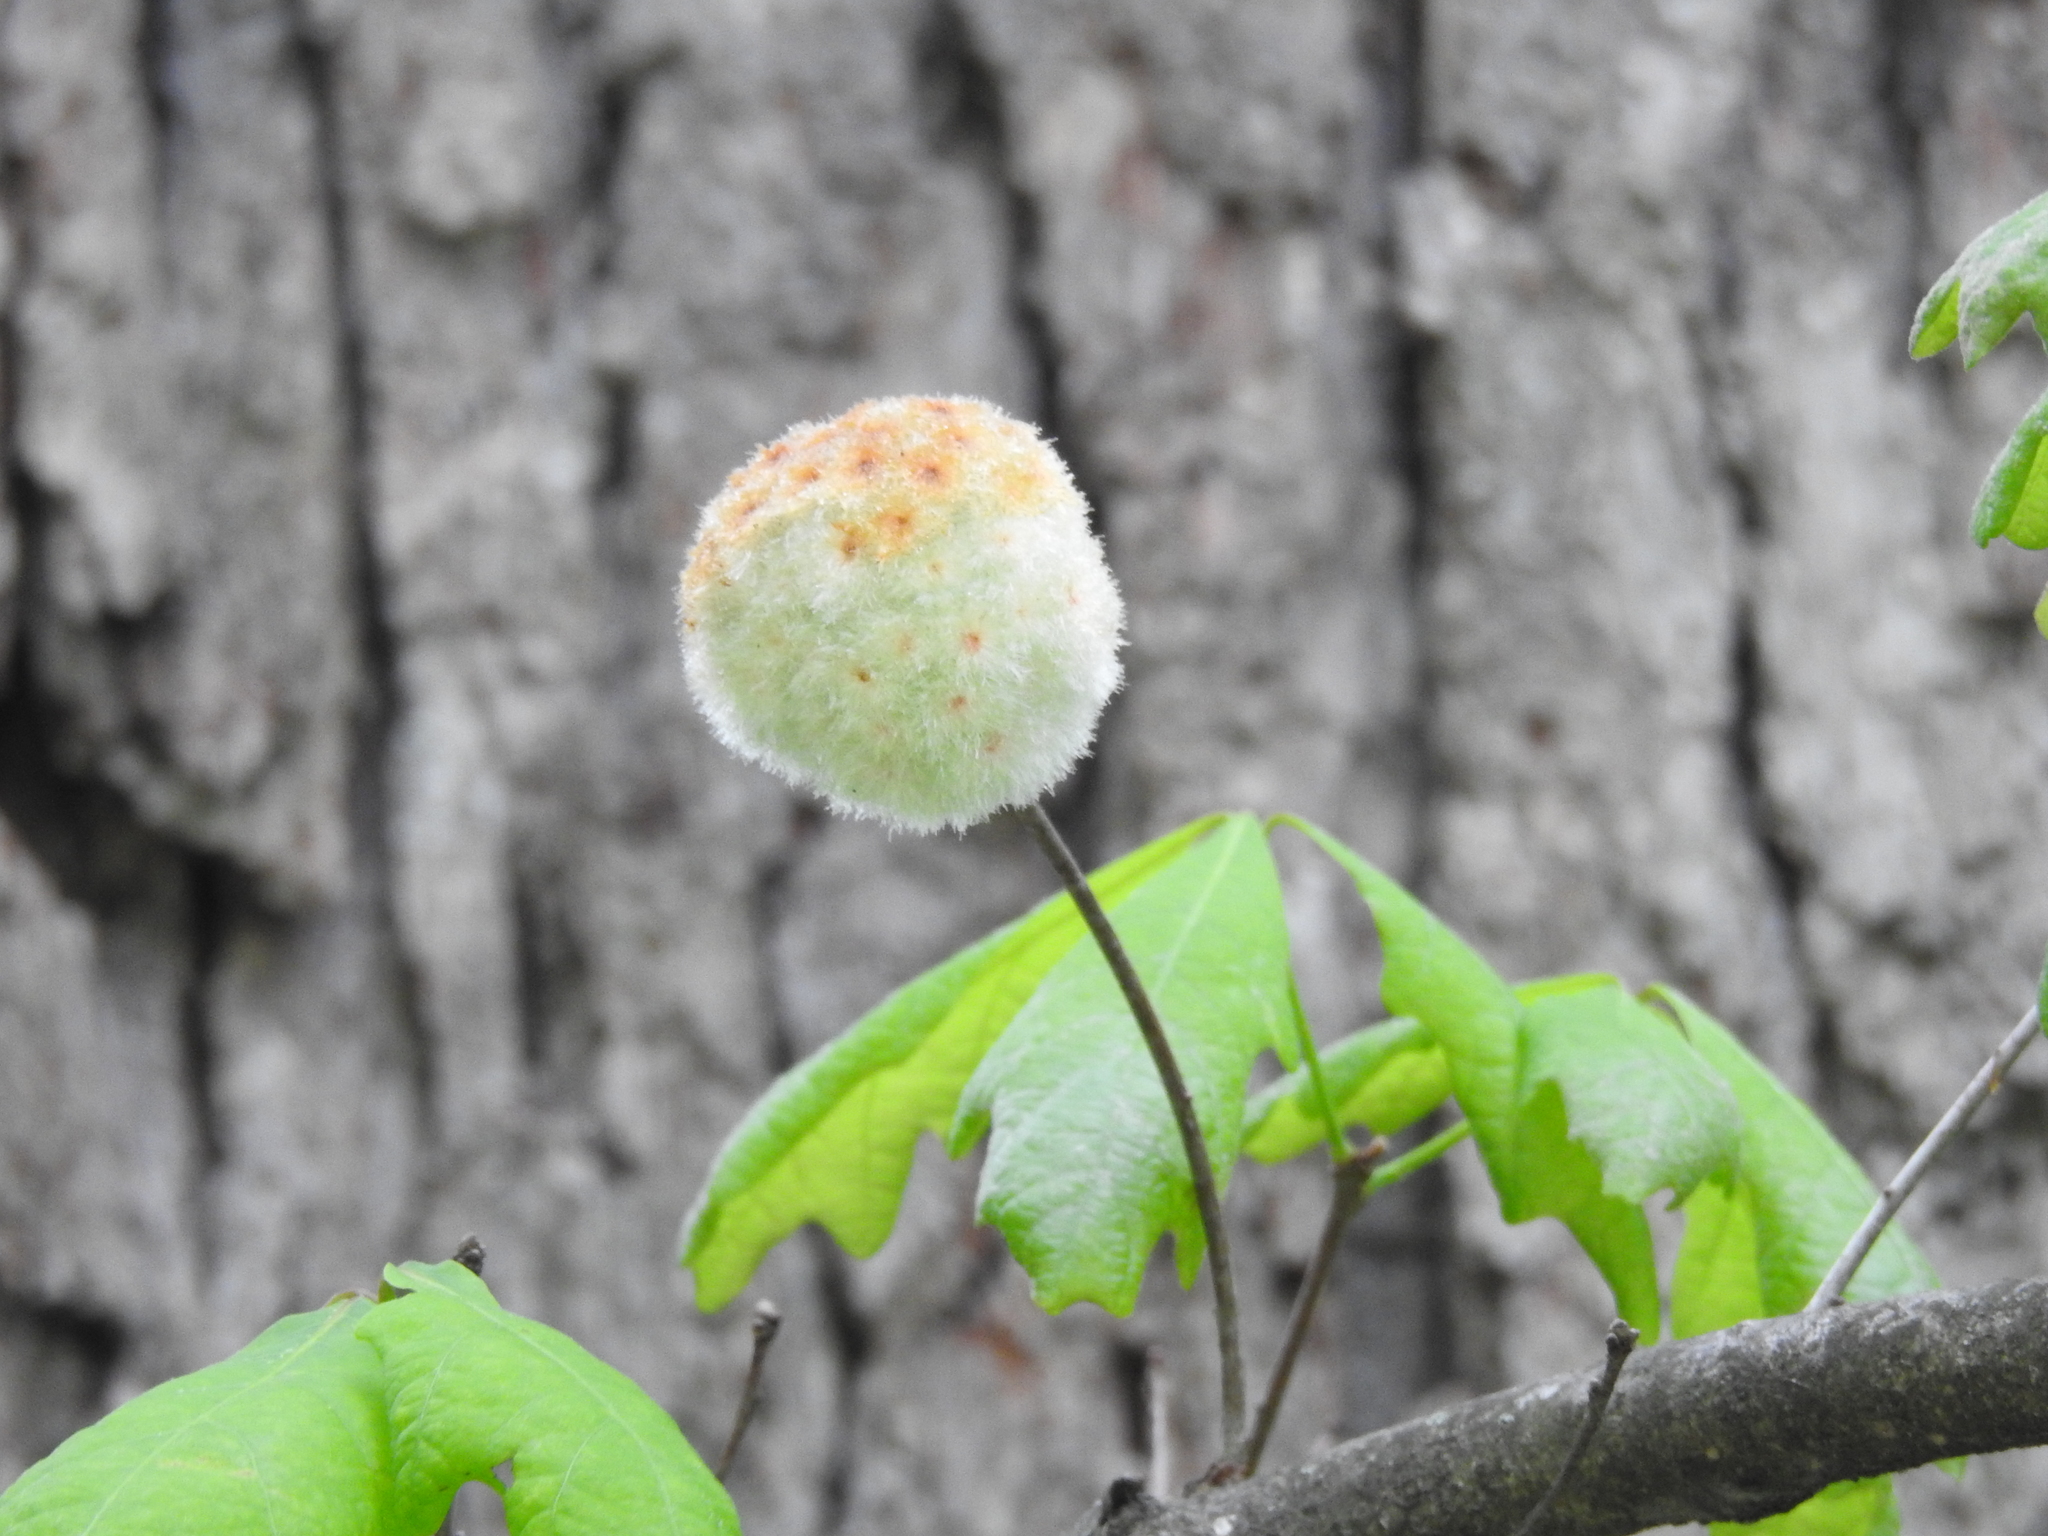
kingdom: Animalia
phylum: Arthropoda
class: Insecta
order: Hymenoptera
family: Cynipidae
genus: Callirhytis
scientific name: Callirhytis
